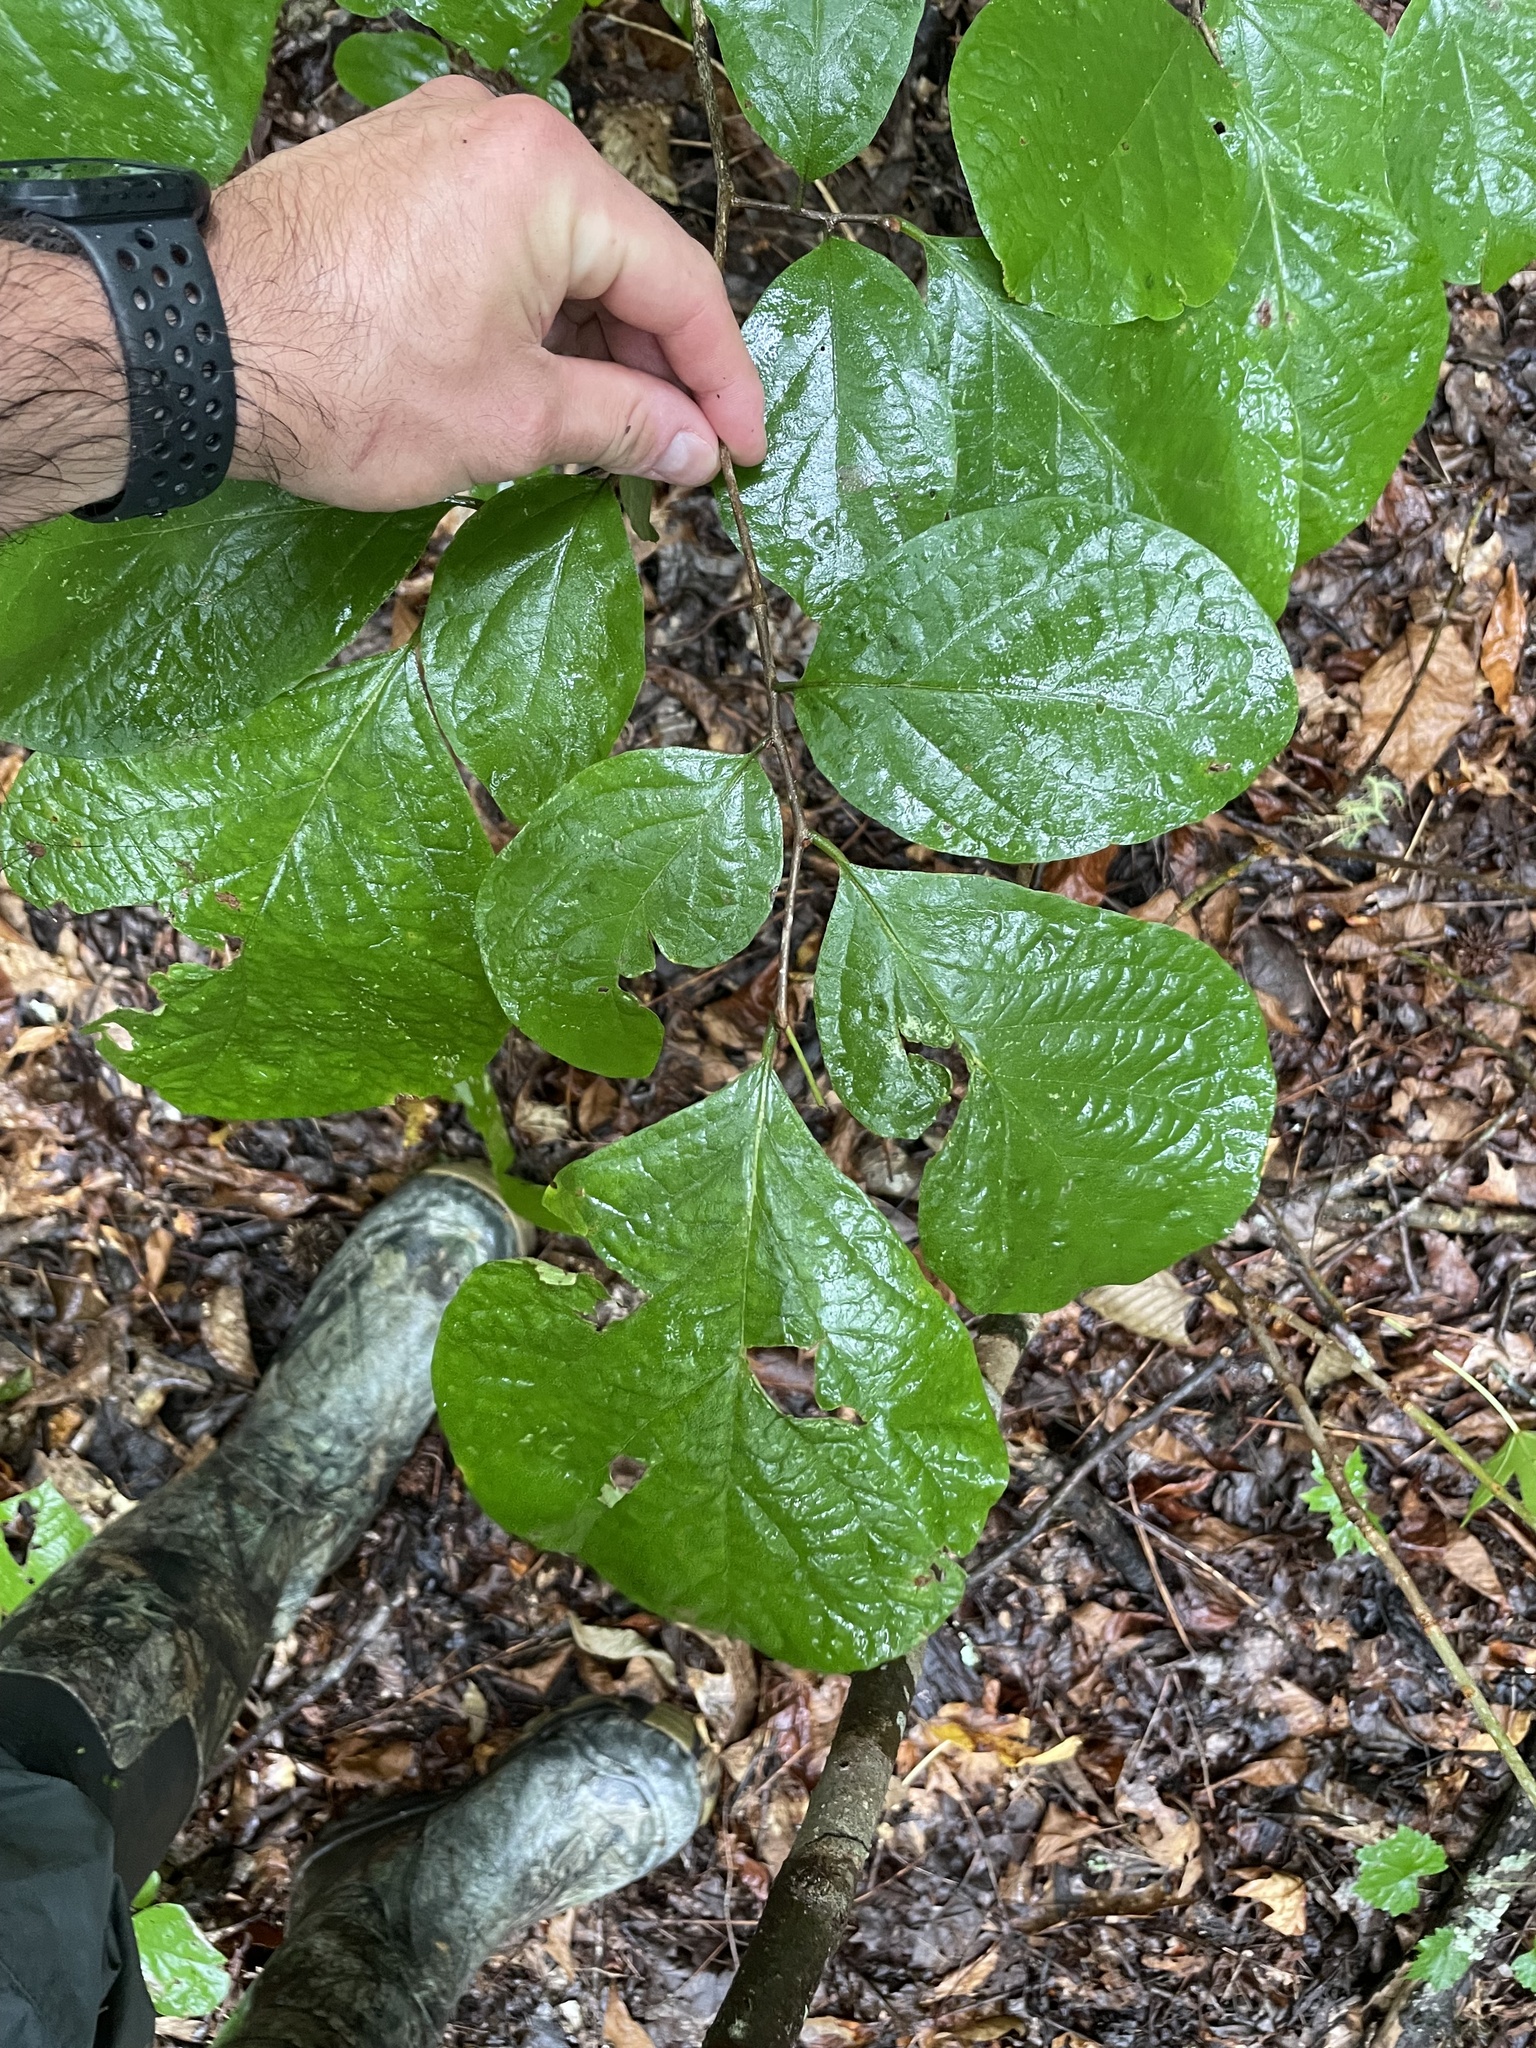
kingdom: Plantae
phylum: Tracheophyta
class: Magnoliopsida
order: Ericales
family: Styracaceae
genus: Styrax
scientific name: Styrax grandifolius
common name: Big-leaf snowbell
